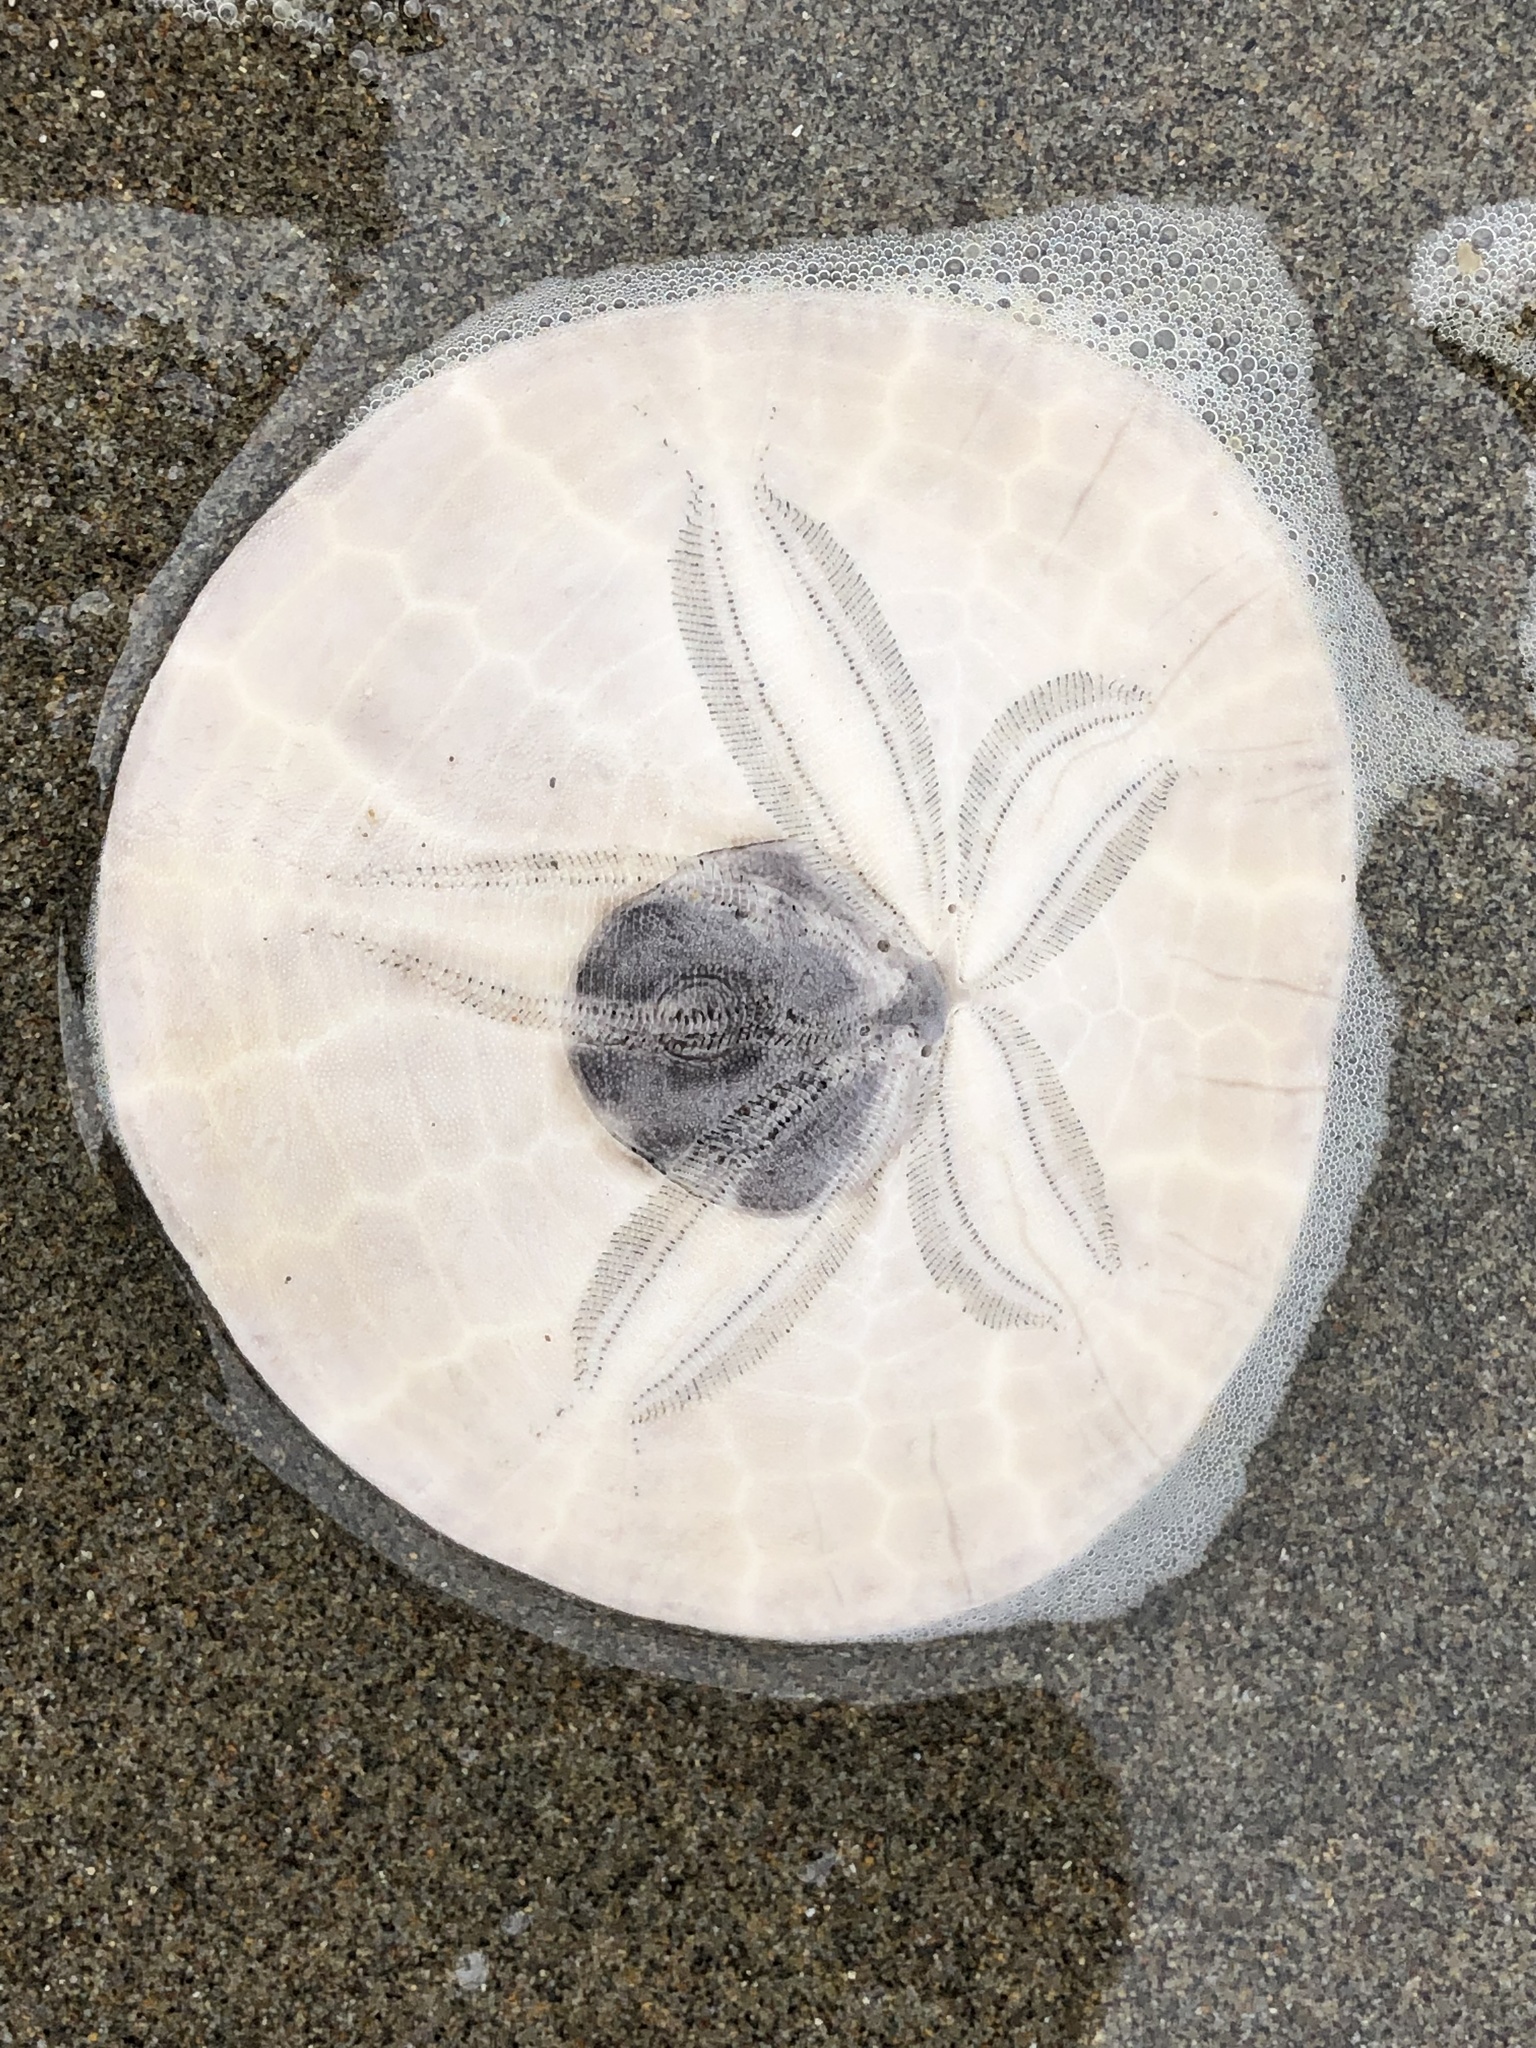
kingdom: Animalia
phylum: Echinodermata
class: Echinoidea
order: Echinolampadacea
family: Dendrasteridae
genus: Dendraster
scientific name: Dendraster excentricus
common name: Eccentric sand dollar sea urchin
